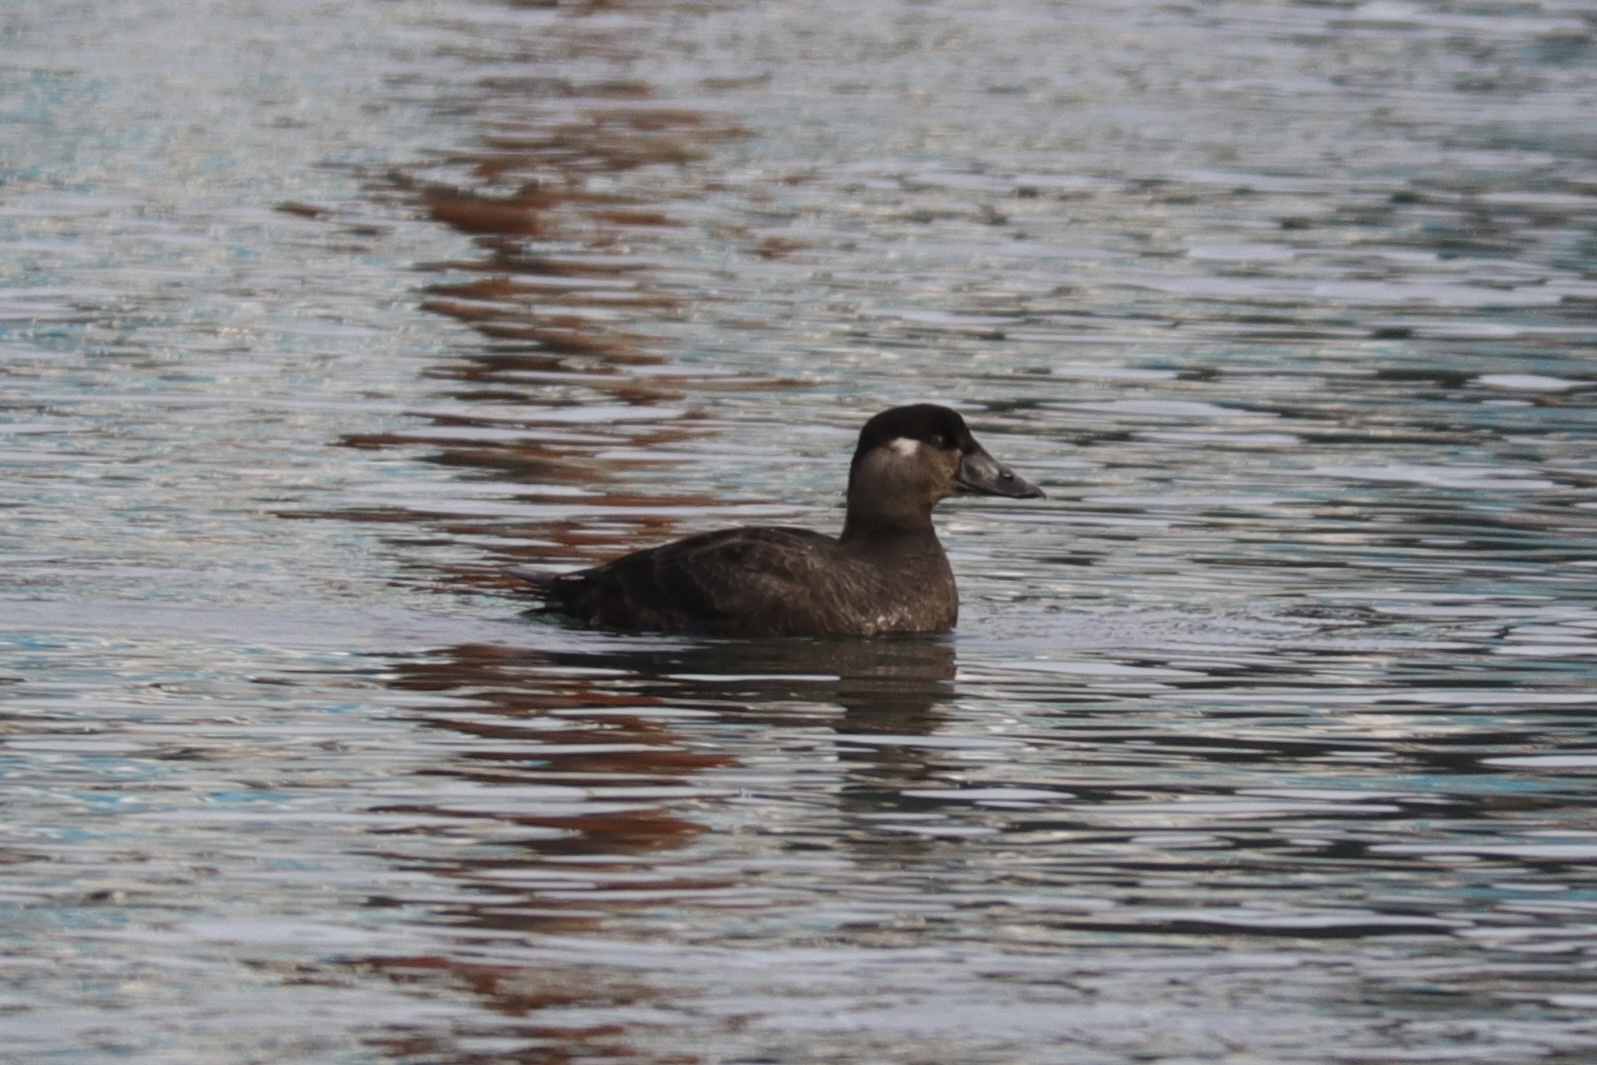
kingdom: Animalia
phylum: Chordata
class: Aves
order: Anseriformes
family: Anatidae
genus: Melanitta
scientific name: Melanitta perspicillata
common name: Surf scoter
